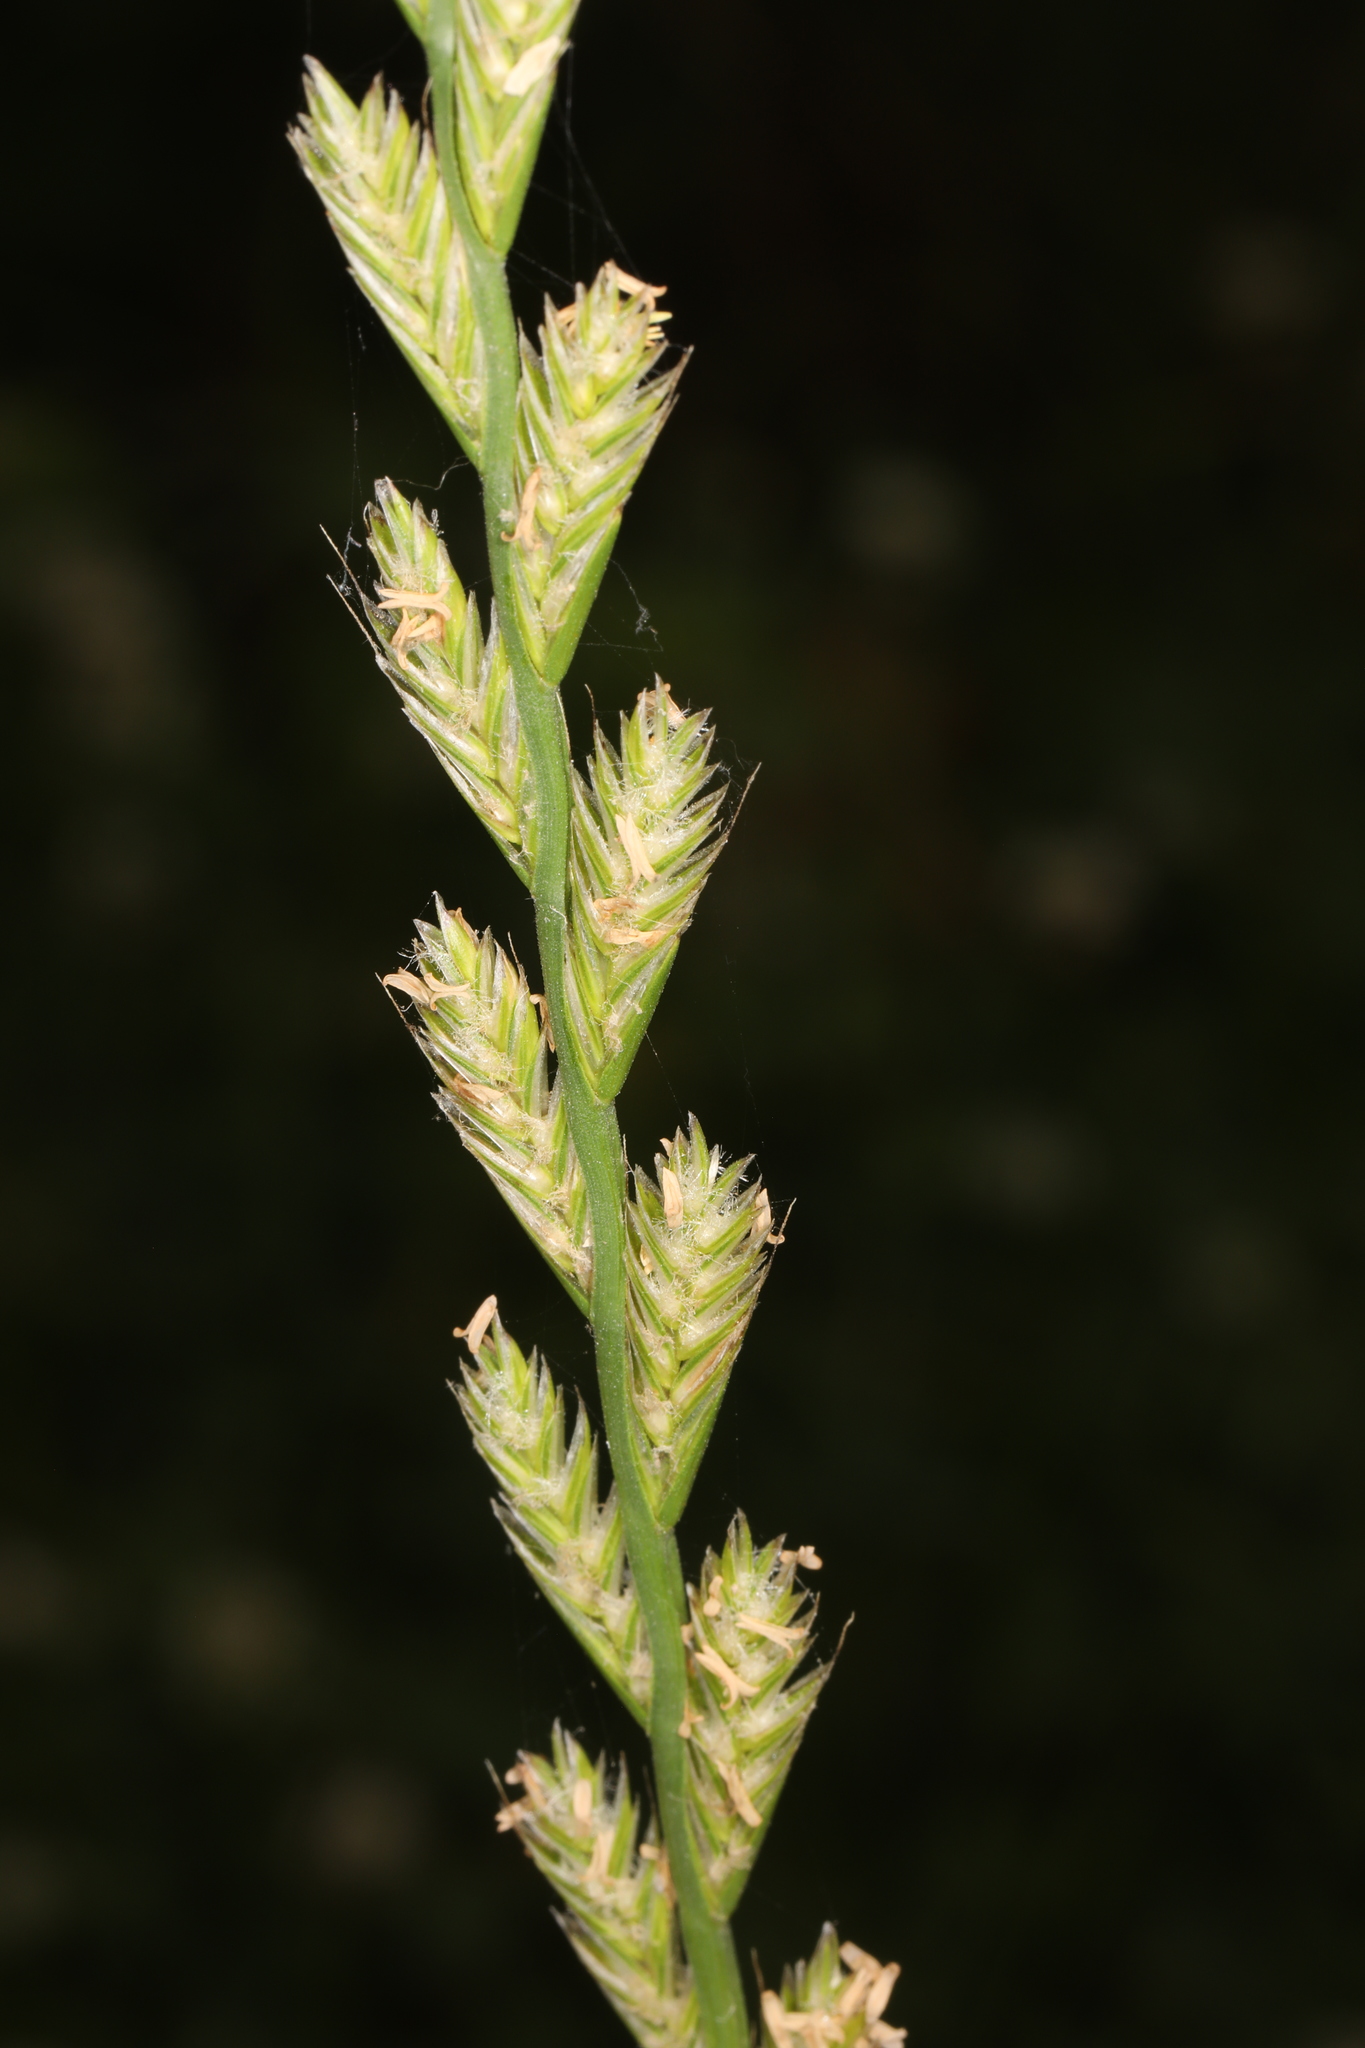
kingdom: Plantae
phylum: Tracheophyta
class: Liliopsida
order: Poales
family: Poaceae
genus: Lolium
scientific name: Lolium perenne
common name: Perennial ryegrass
